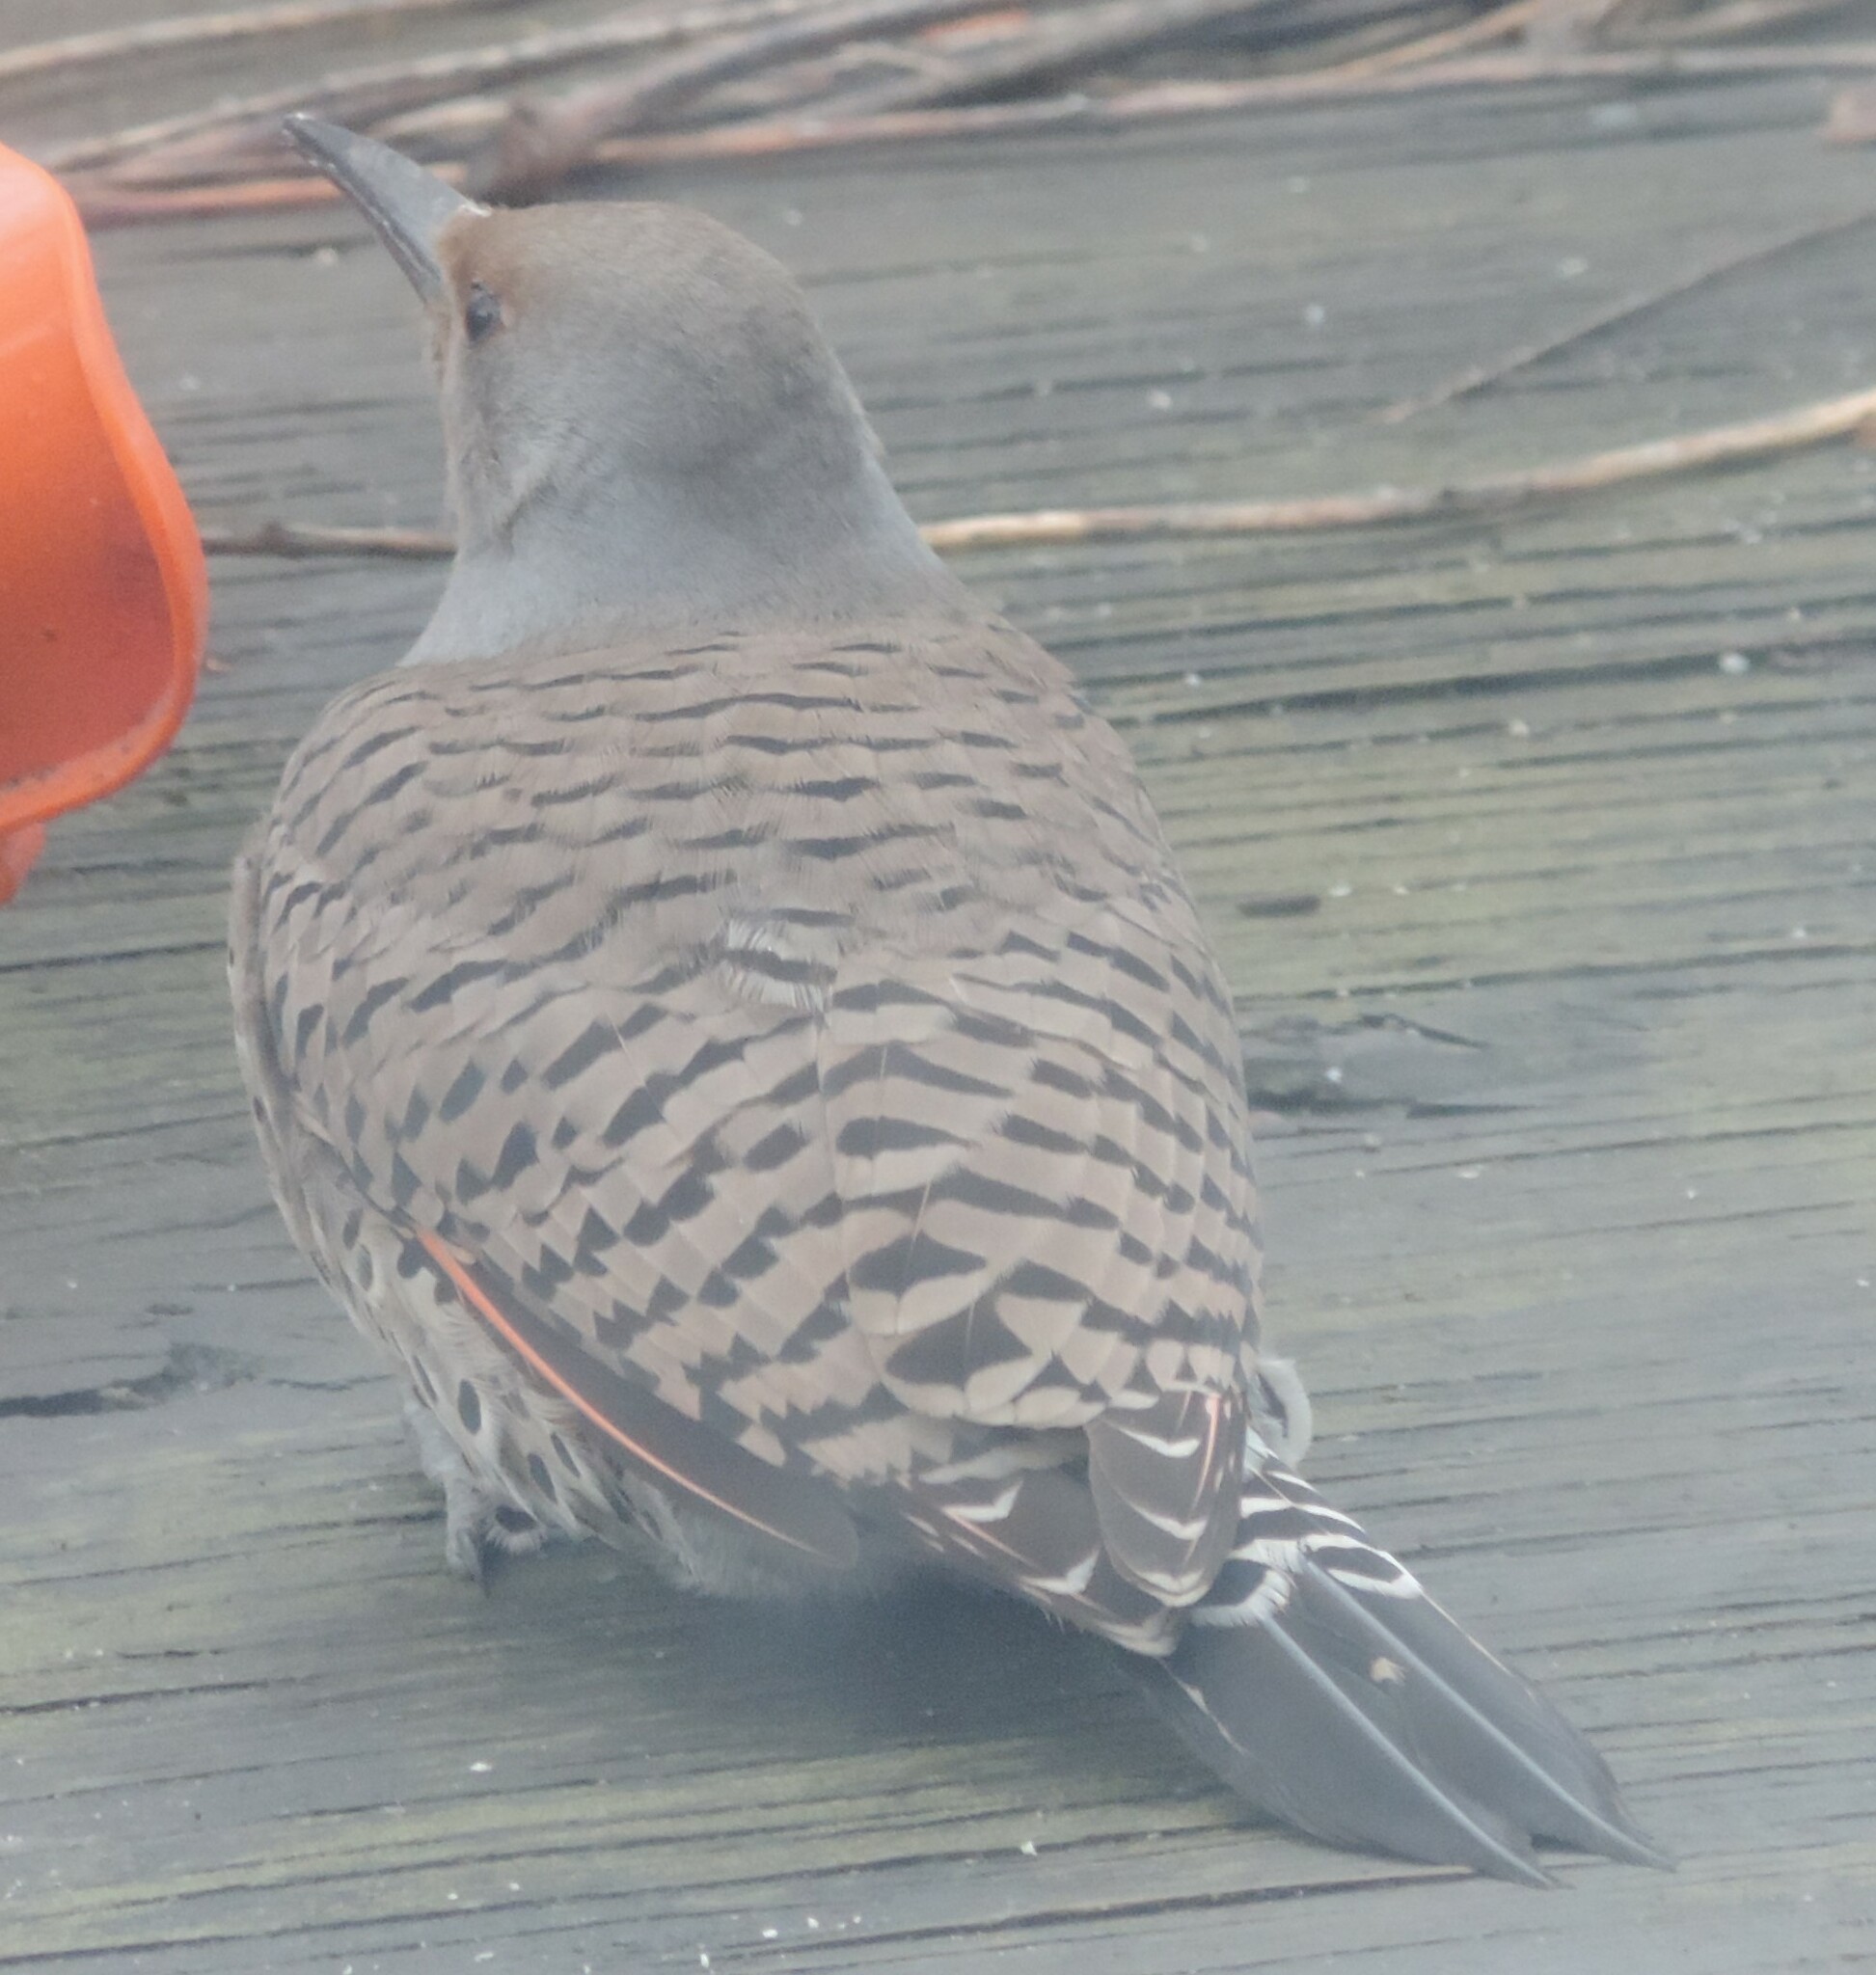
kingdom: Animalia
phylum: Chordata
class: Aves
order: Piciformes
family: Picidae
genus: Colaptes
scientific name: Colaptes auratus
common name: Northern flicker
